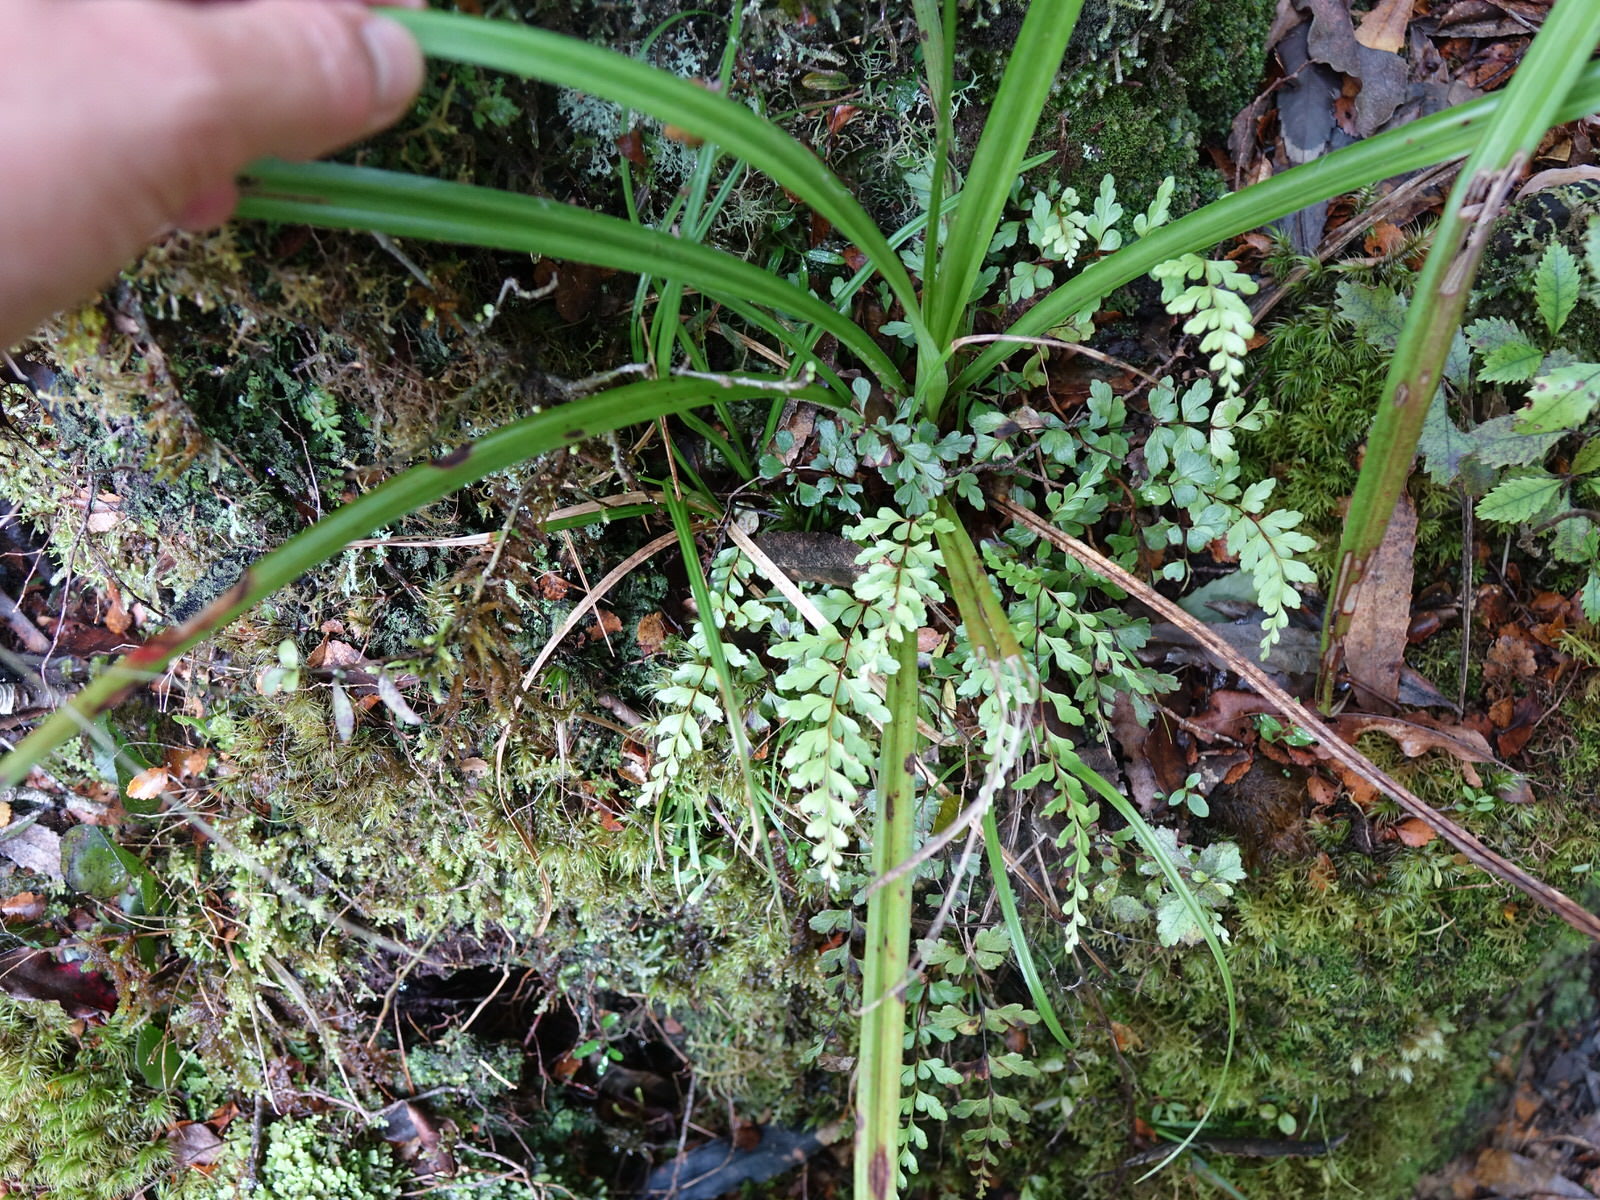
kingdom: Plantae
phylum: Tracheophyta
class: Polypodiopsida
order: Polypodiales
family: Lindsaeaceae
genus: Lindsaea
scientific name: Lindsaea trichomanoides
